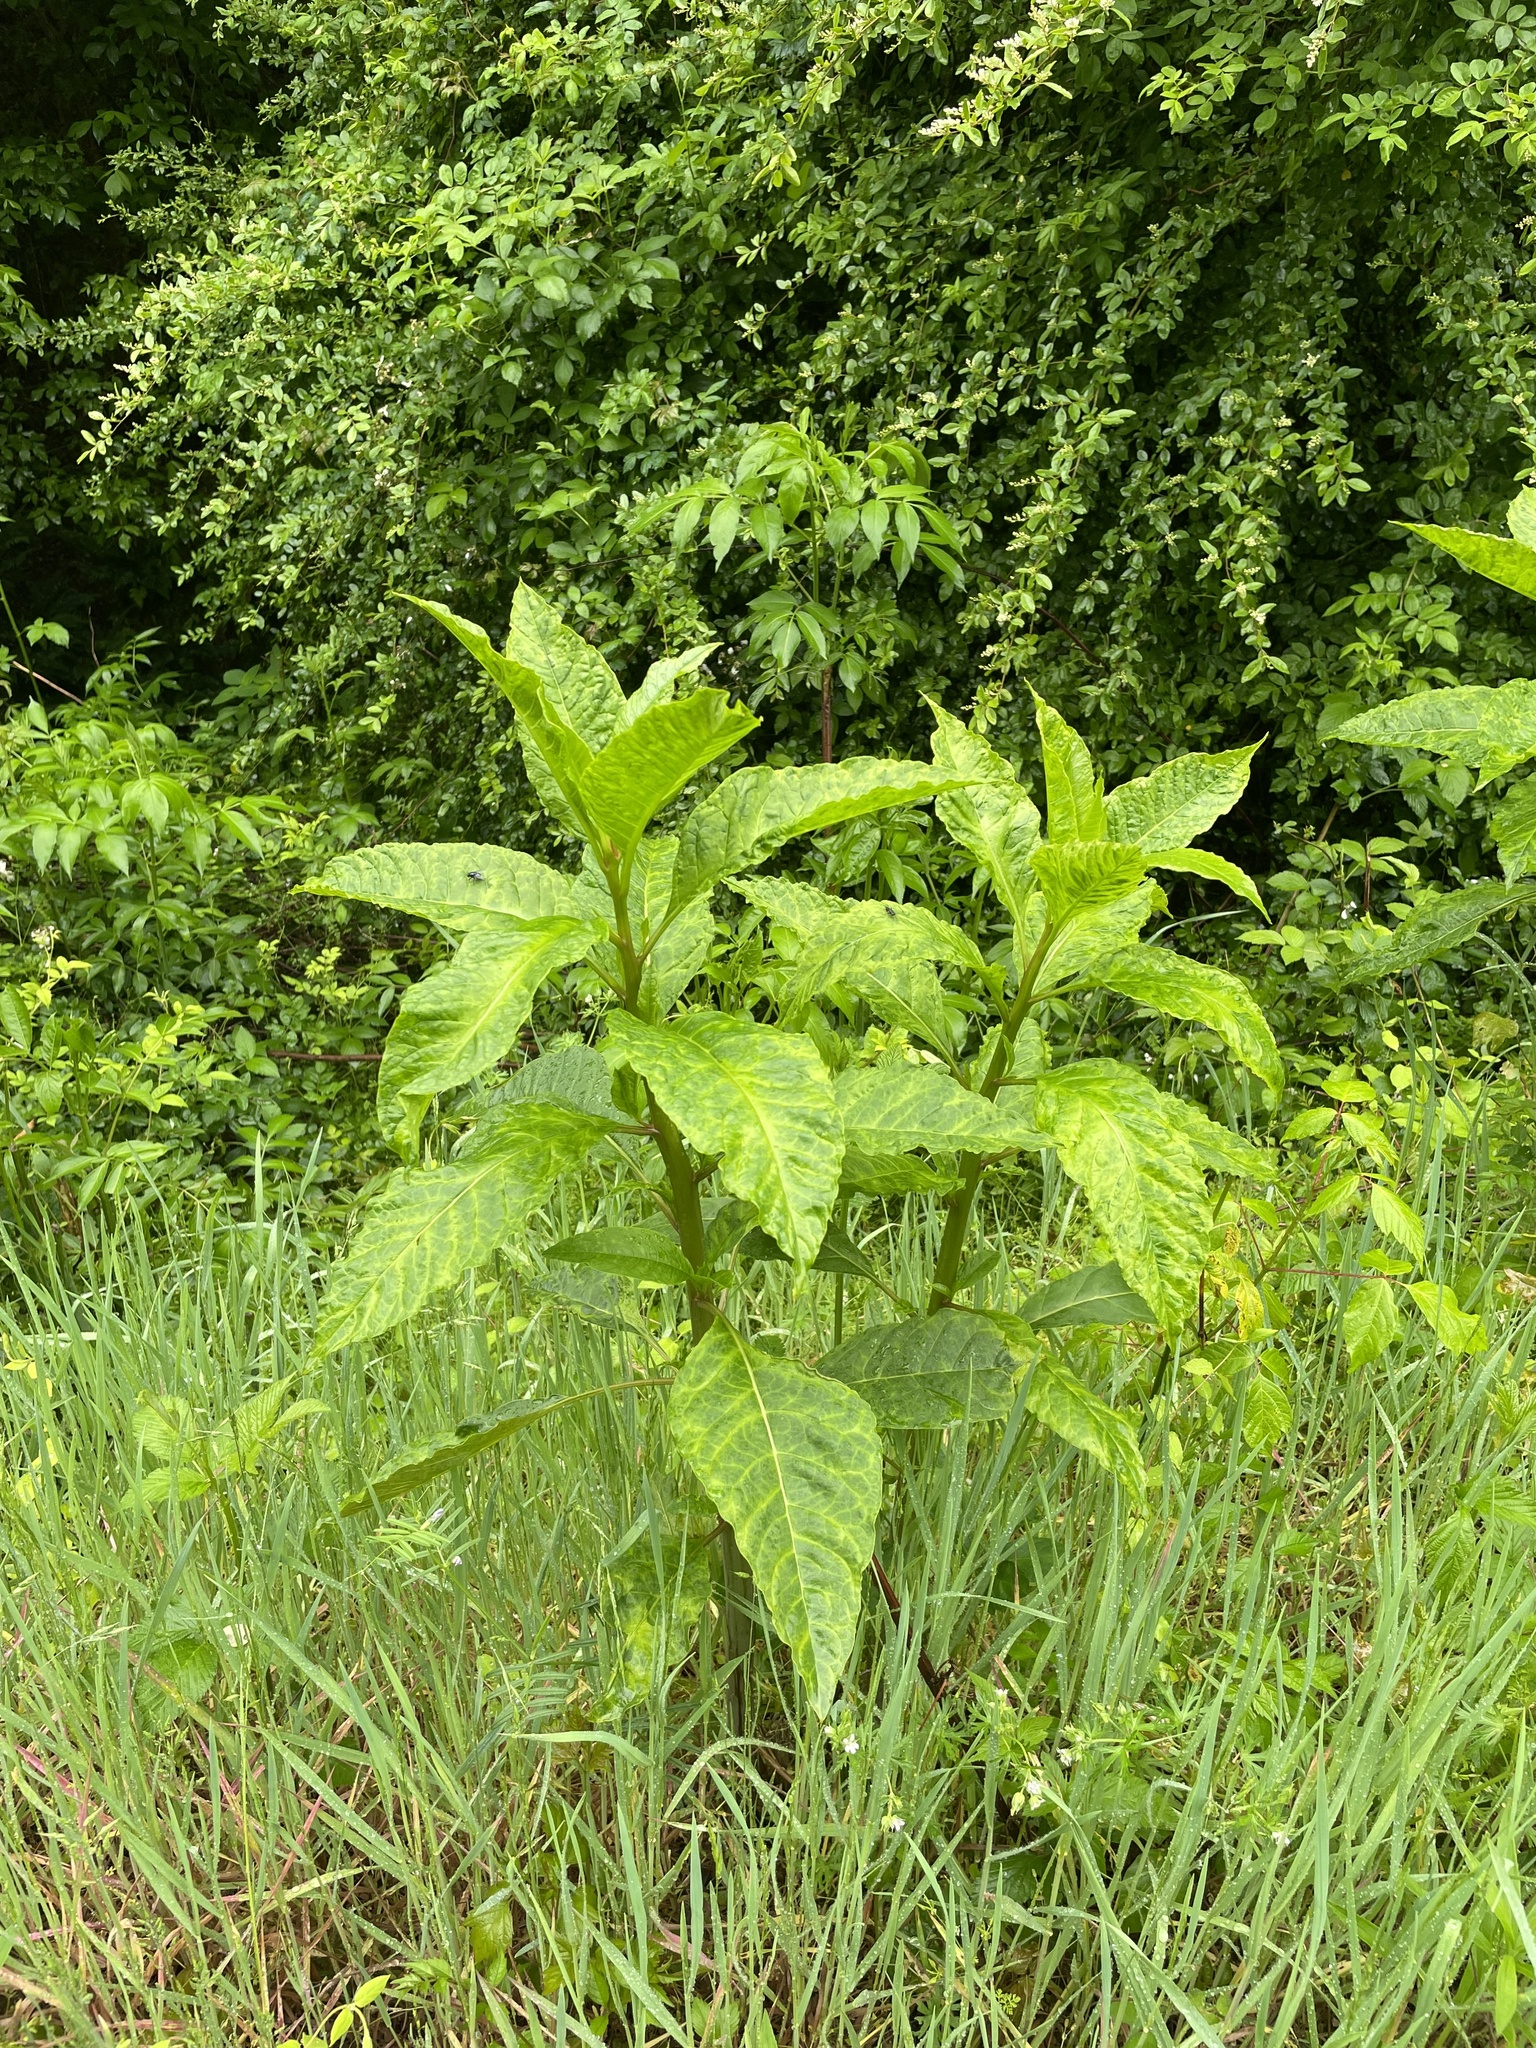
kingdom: Plantae
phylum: Tracheophyta
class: Magnoliopsida
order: Caryophyllales
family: Phytolaccaceae
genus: Phytolacca
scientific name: Phytolacca americana
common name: American pokeweed
